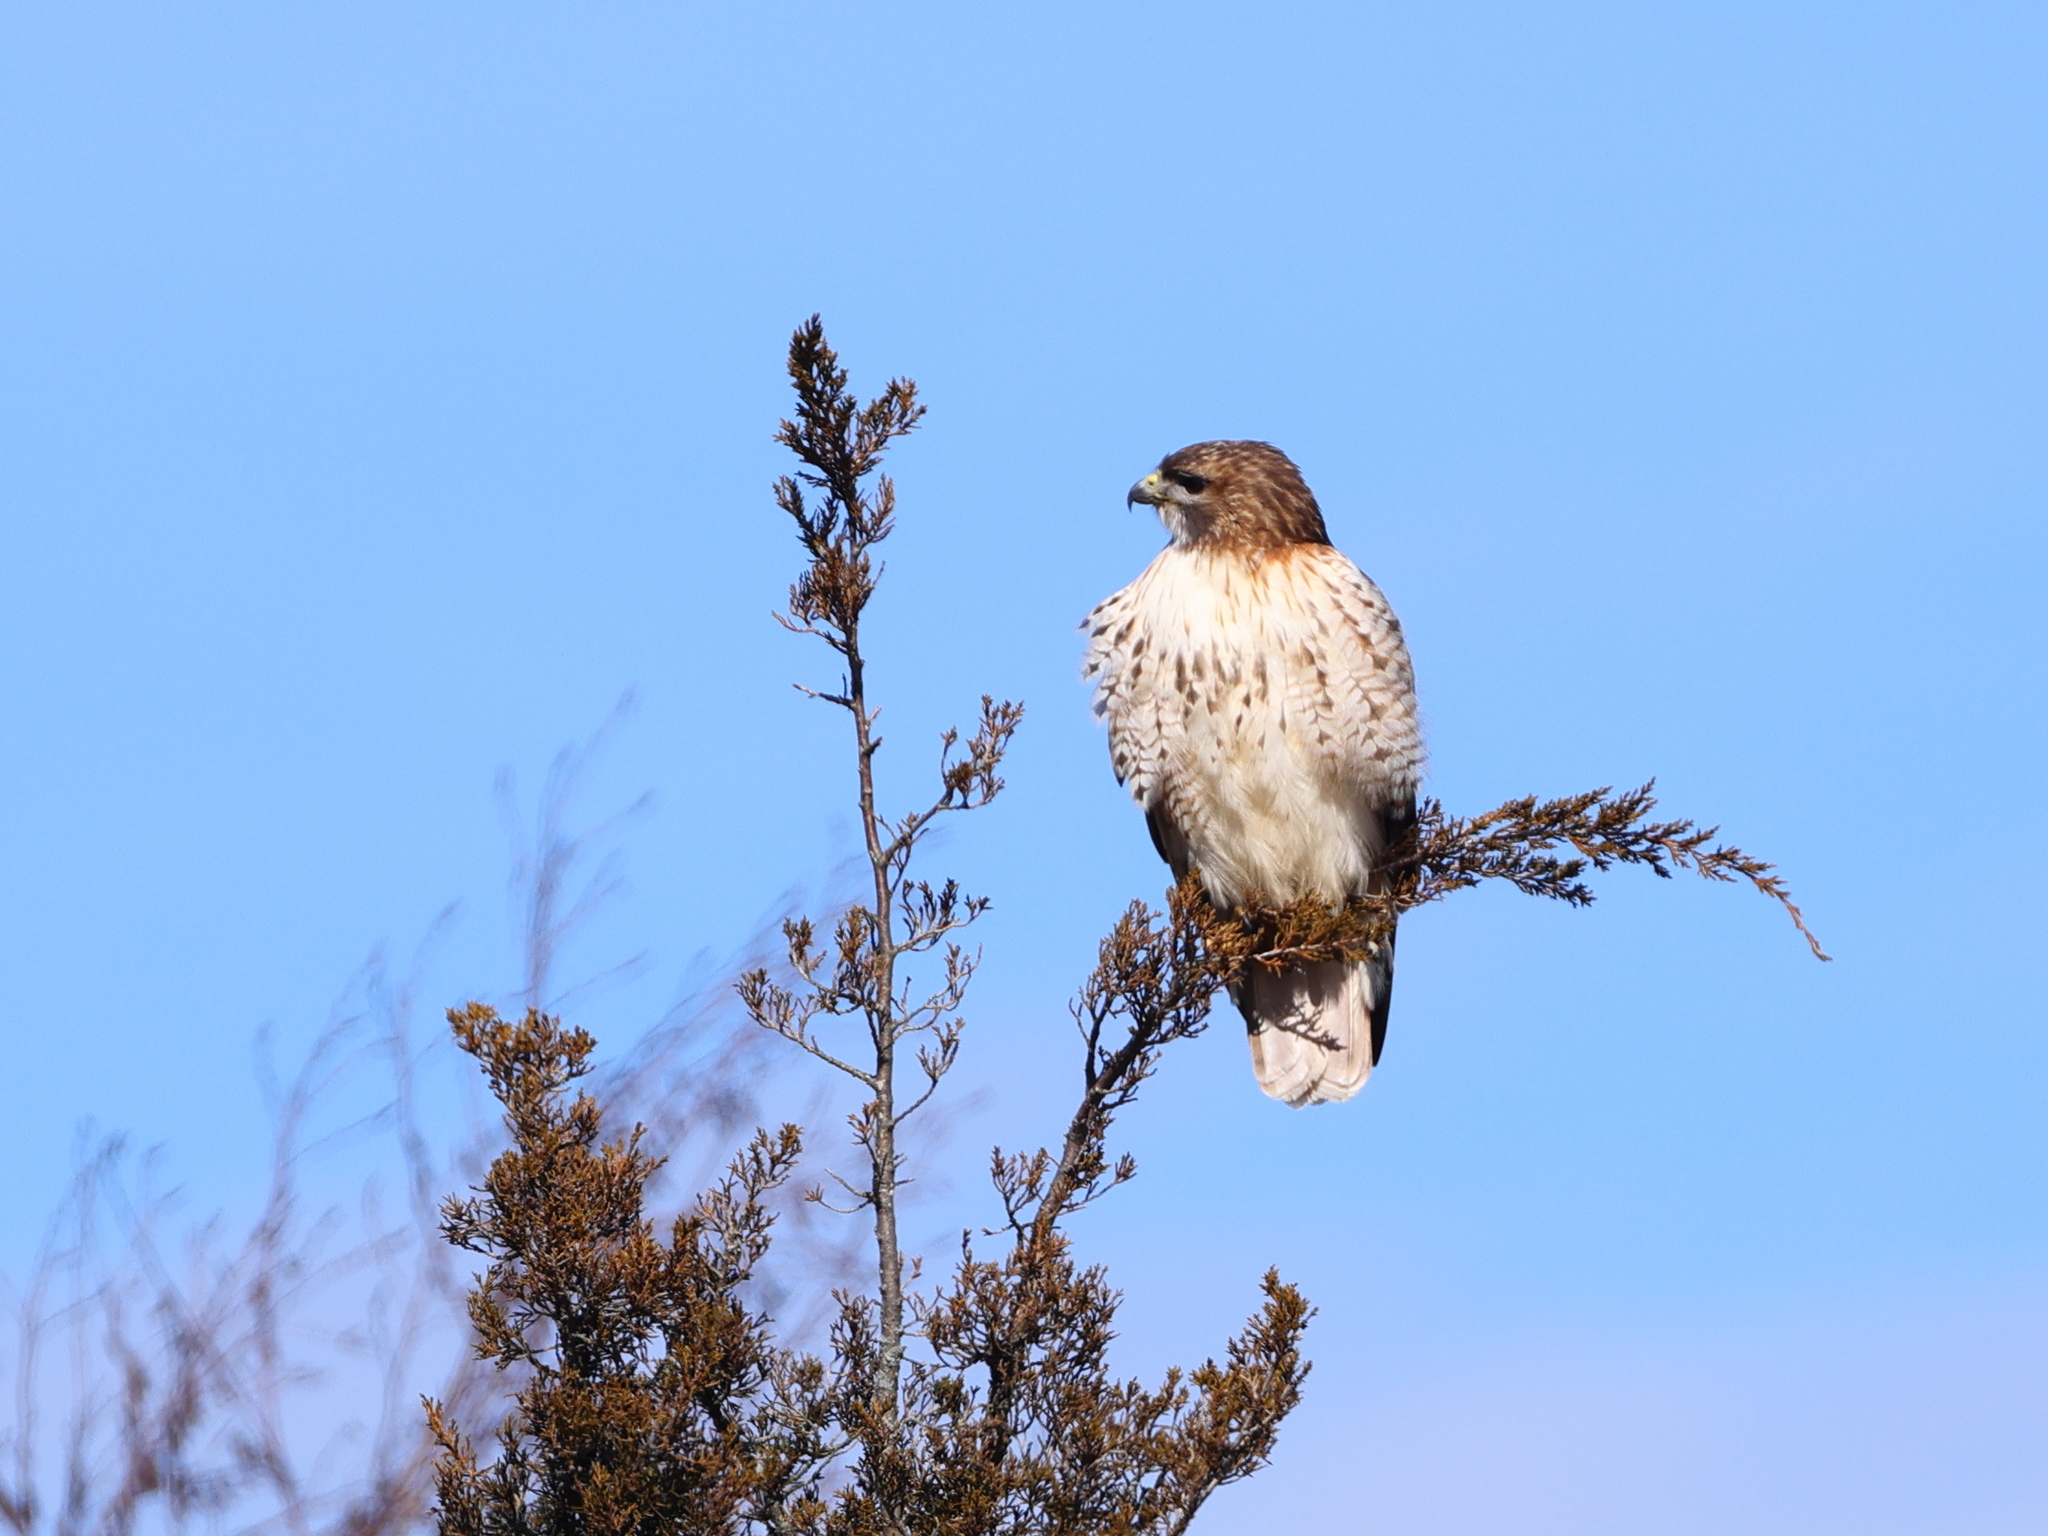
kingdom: Animalia
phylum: Chordata
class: Aves
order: Accipitriformes
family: Accipitridae
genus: Buteo
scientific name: Buteo jamaicensis
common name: Red-tailed hawk
